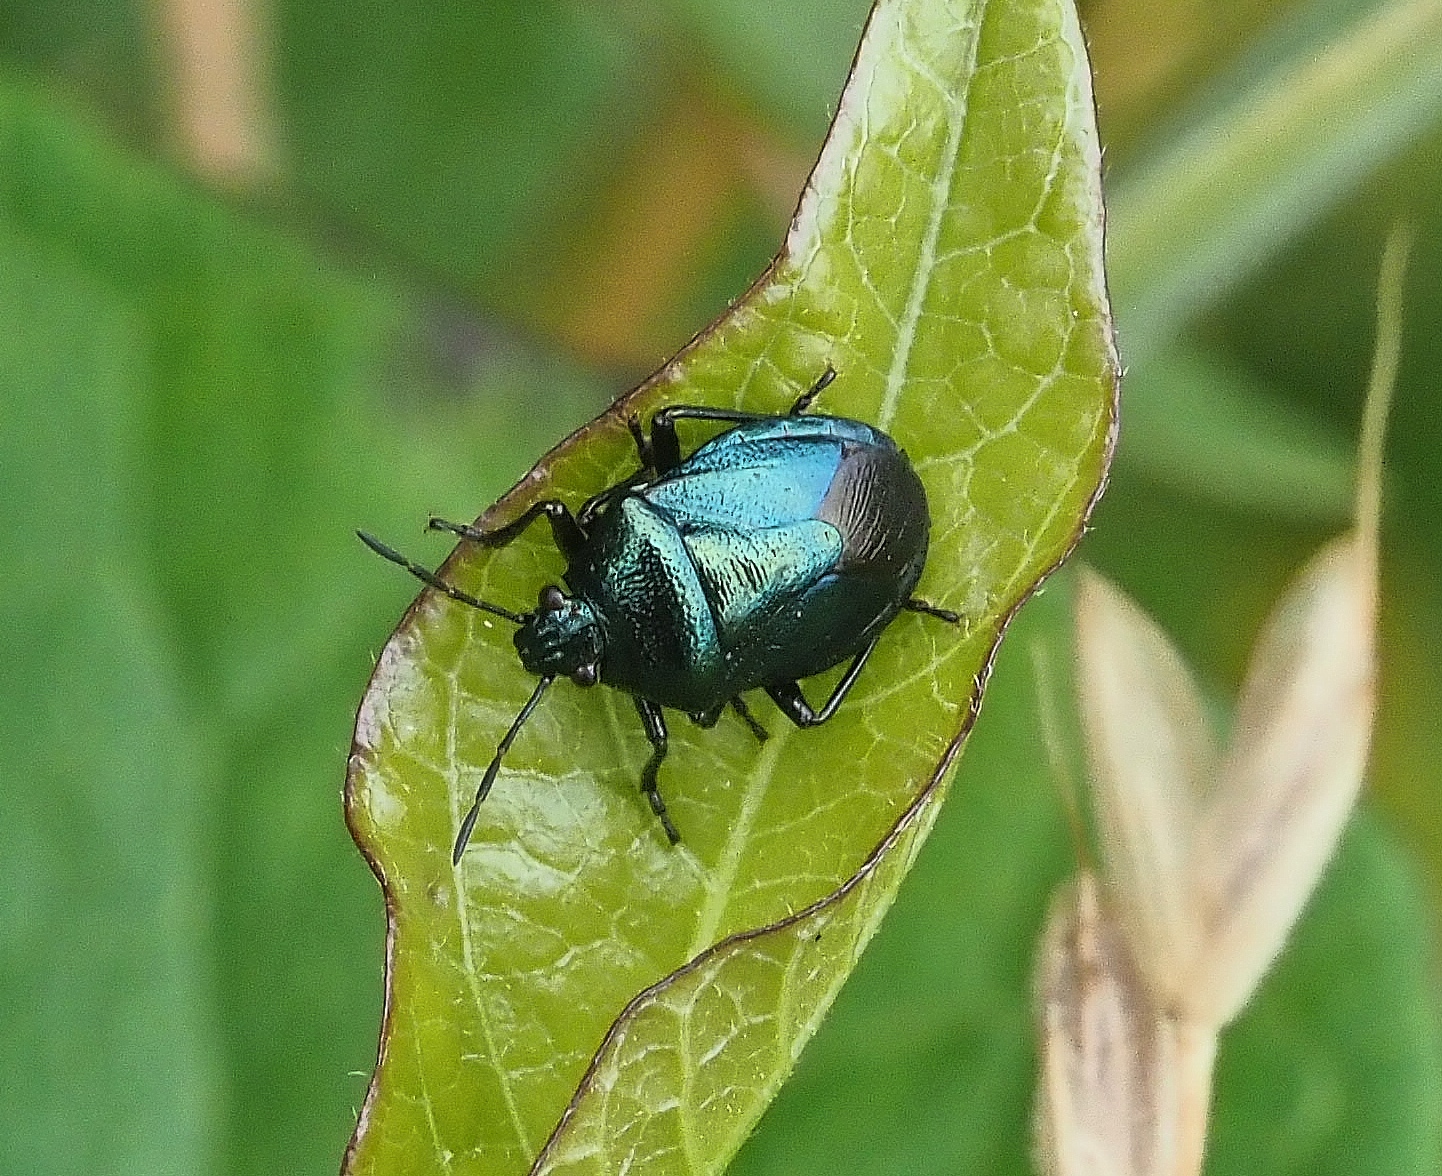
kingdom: Animalia
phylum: Arthropoda
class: Insecta
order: Hemiptera
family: Pentatomidae
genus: Zicrona
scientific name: Zicrona caerulea
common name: Blue shieldbug
